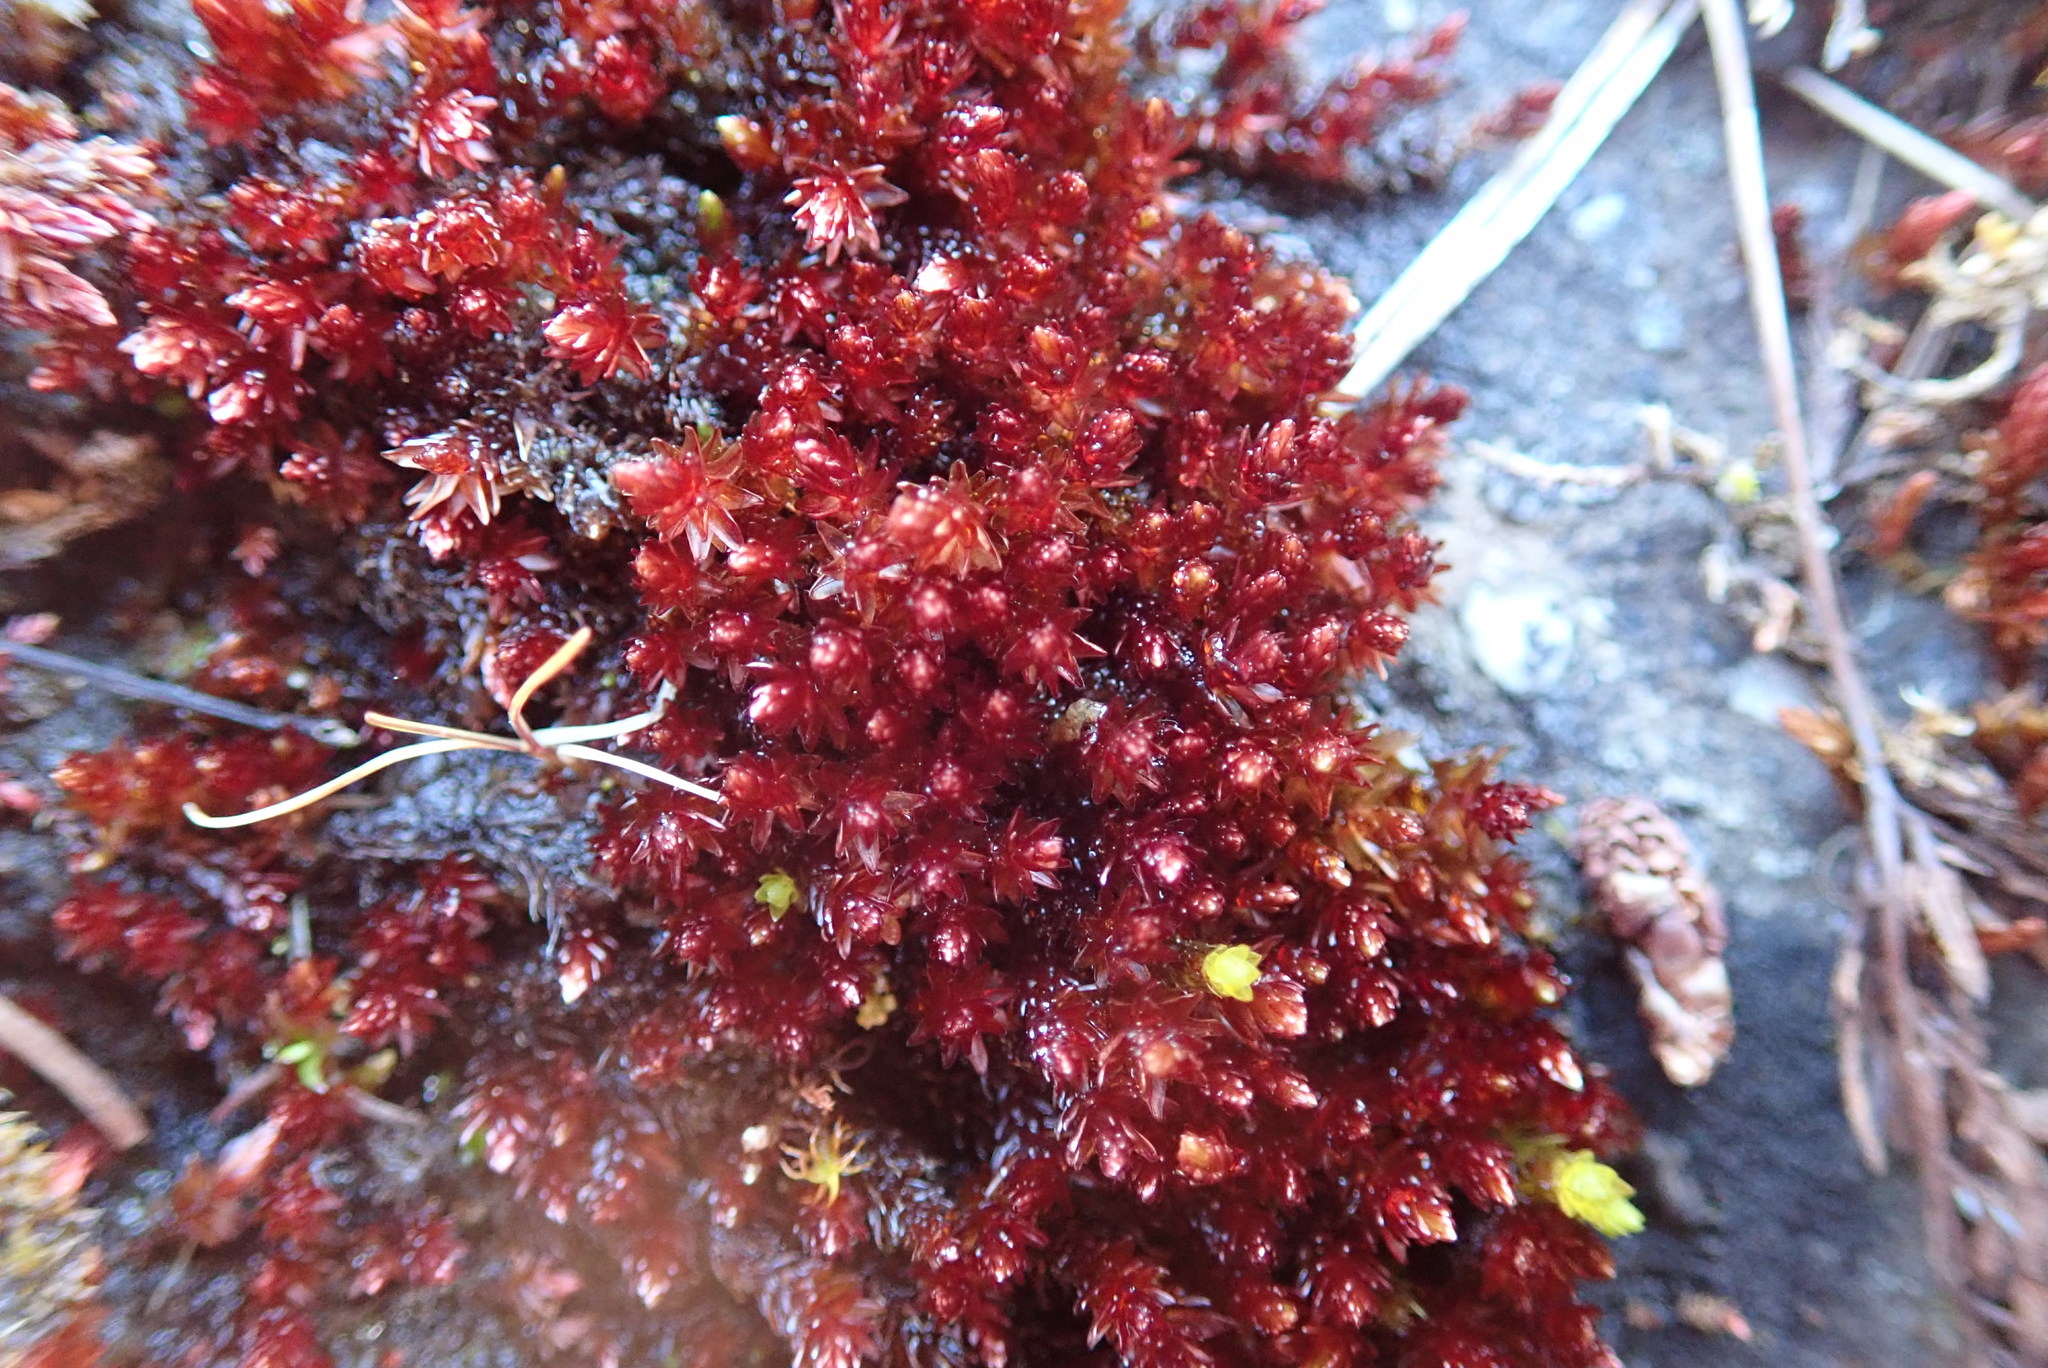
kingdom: Plantae
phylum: Bryophyta
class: Bryopsida
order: Bryales
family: Bryaceae
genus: Imbribryum
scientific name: Imbribryum miniatum
